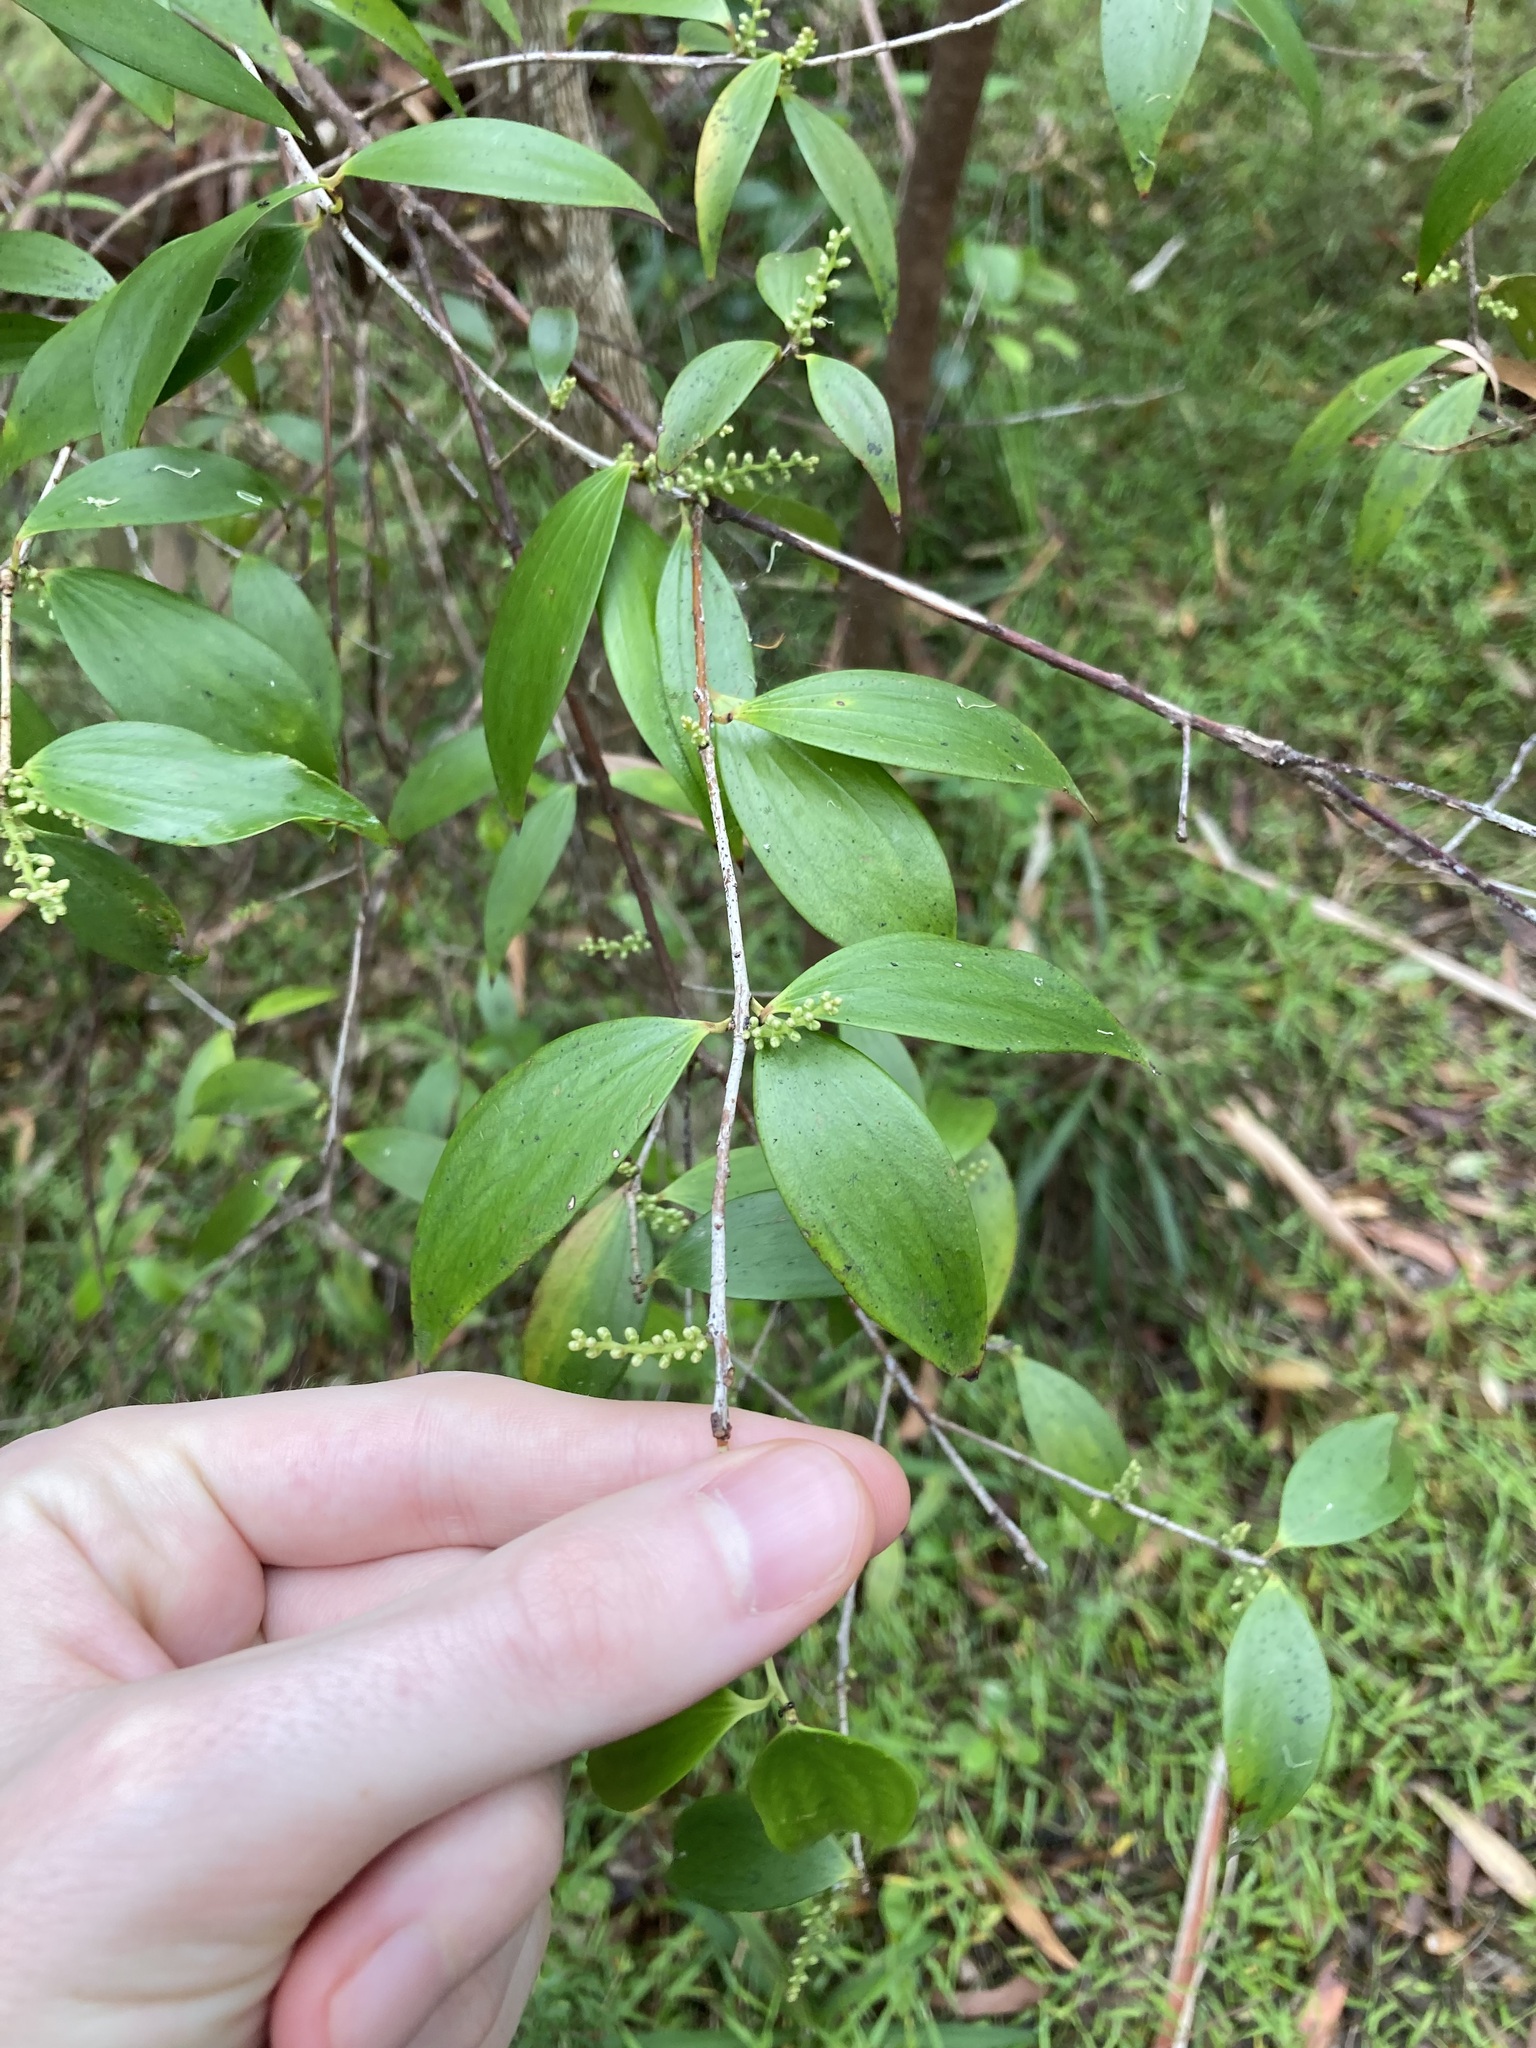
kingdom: Plantae
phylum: Tracheophyta
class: Magnoliopsida
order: Ericales
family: Ericaceae
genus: Trochocarpa
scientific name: Trochocarpa laurina
